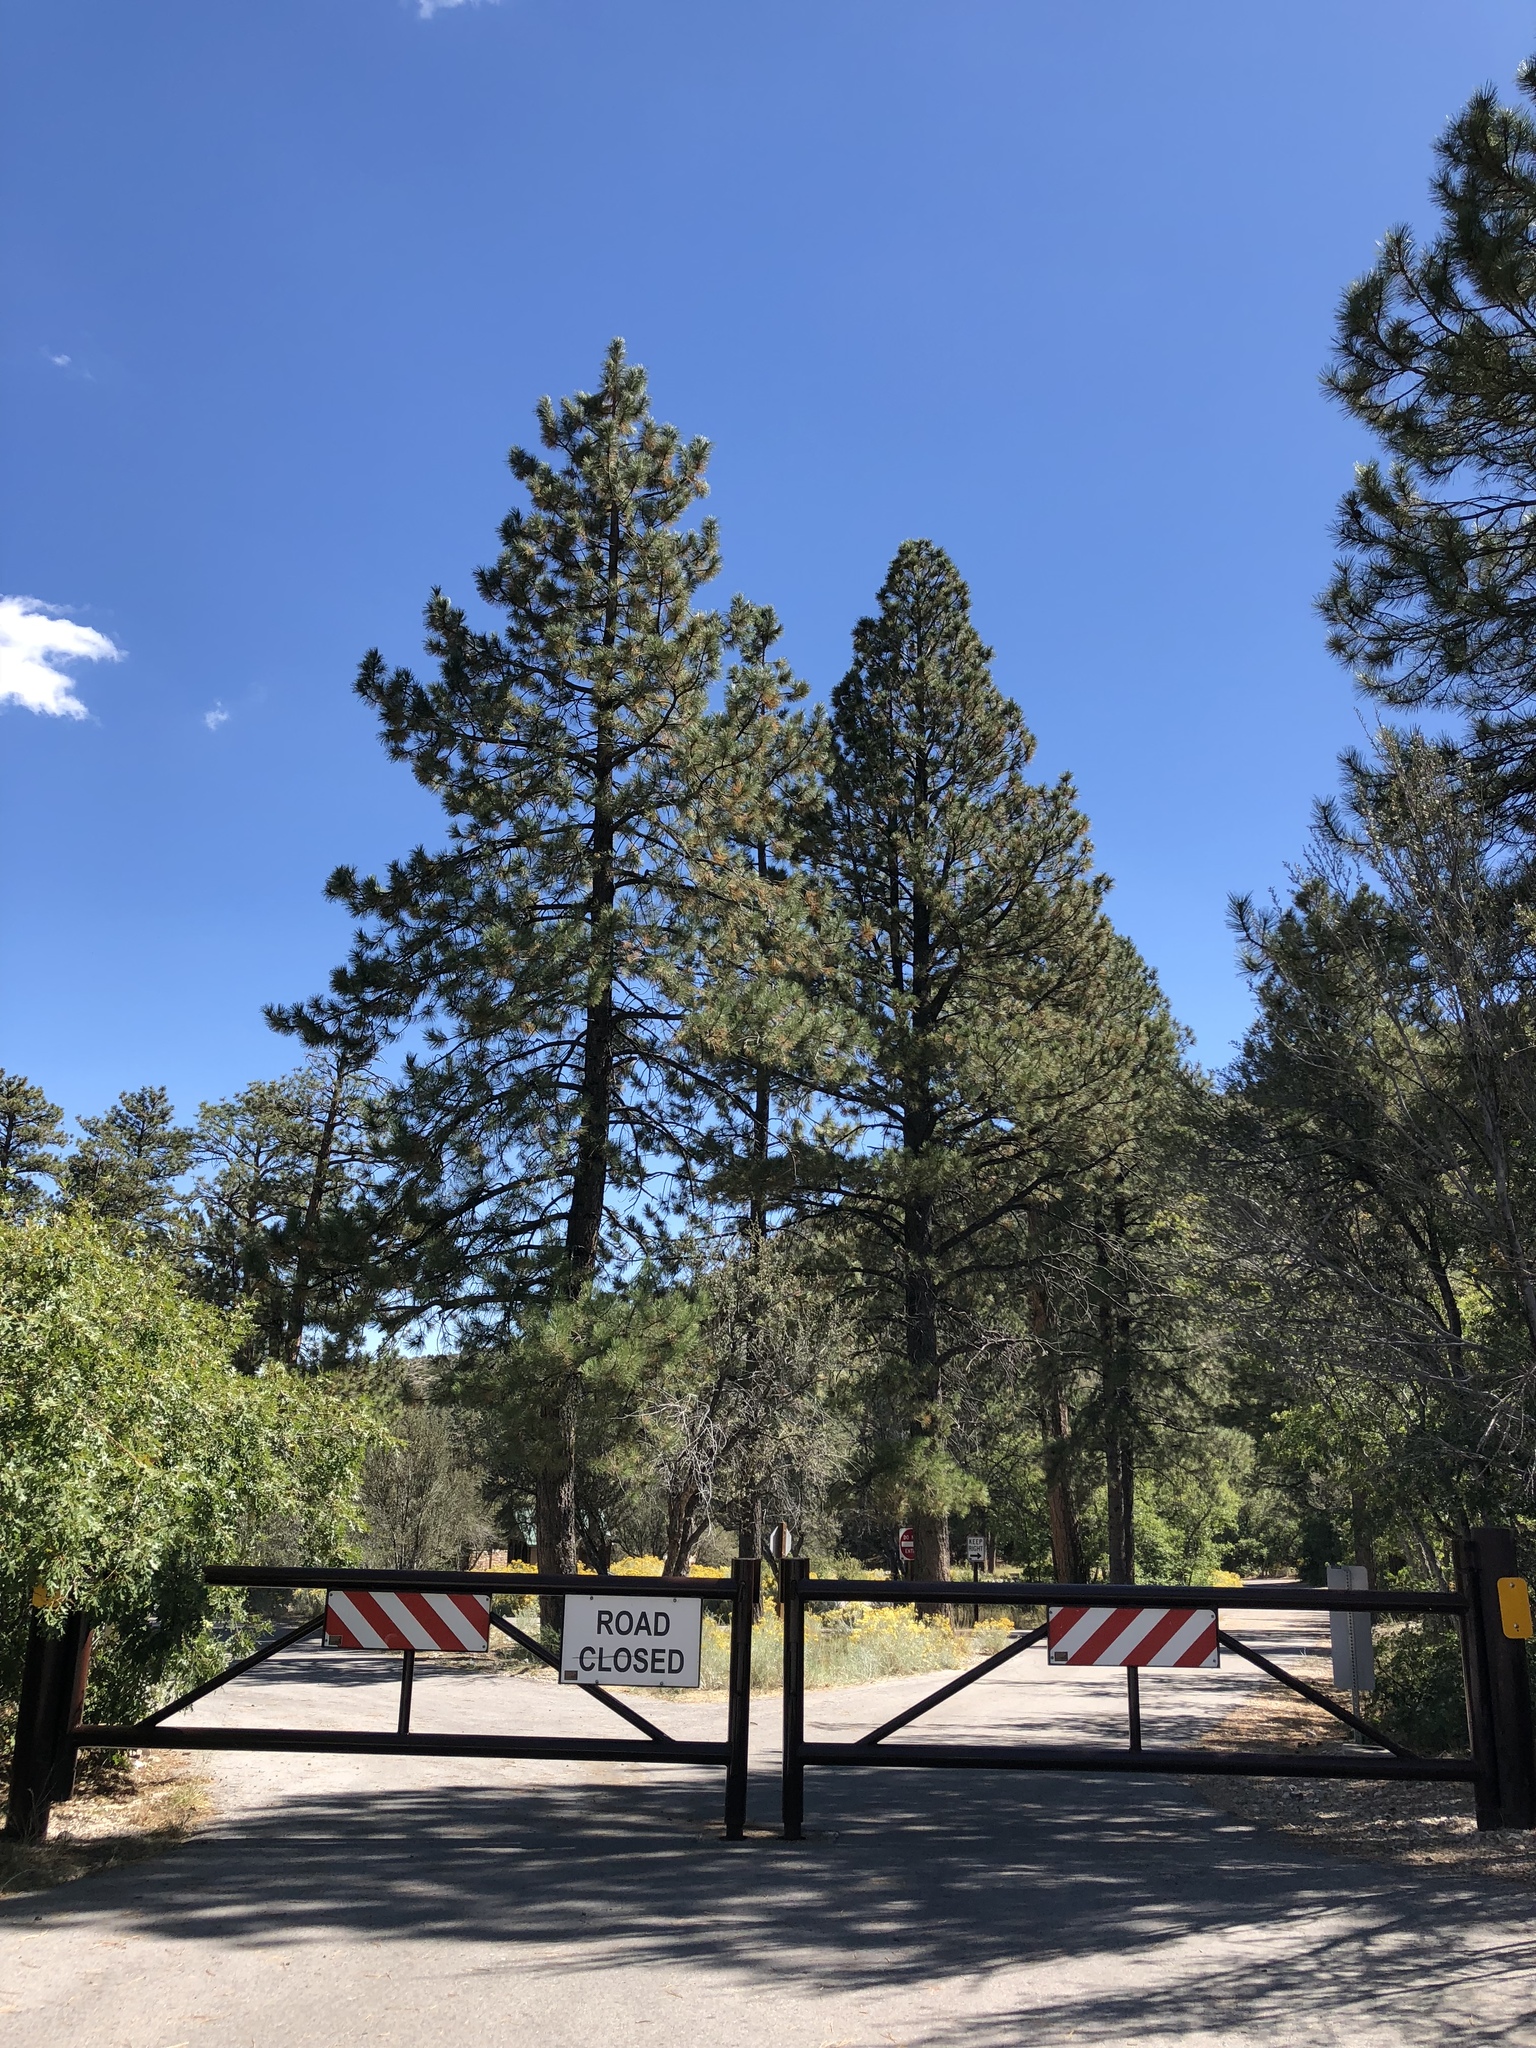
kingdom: Plantae
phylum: Tracheophyta
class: Pinopsida
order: Pinales
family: Pinaceae
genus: Pinus
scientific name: Pinus ponderosa
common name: Western yellow-pine
